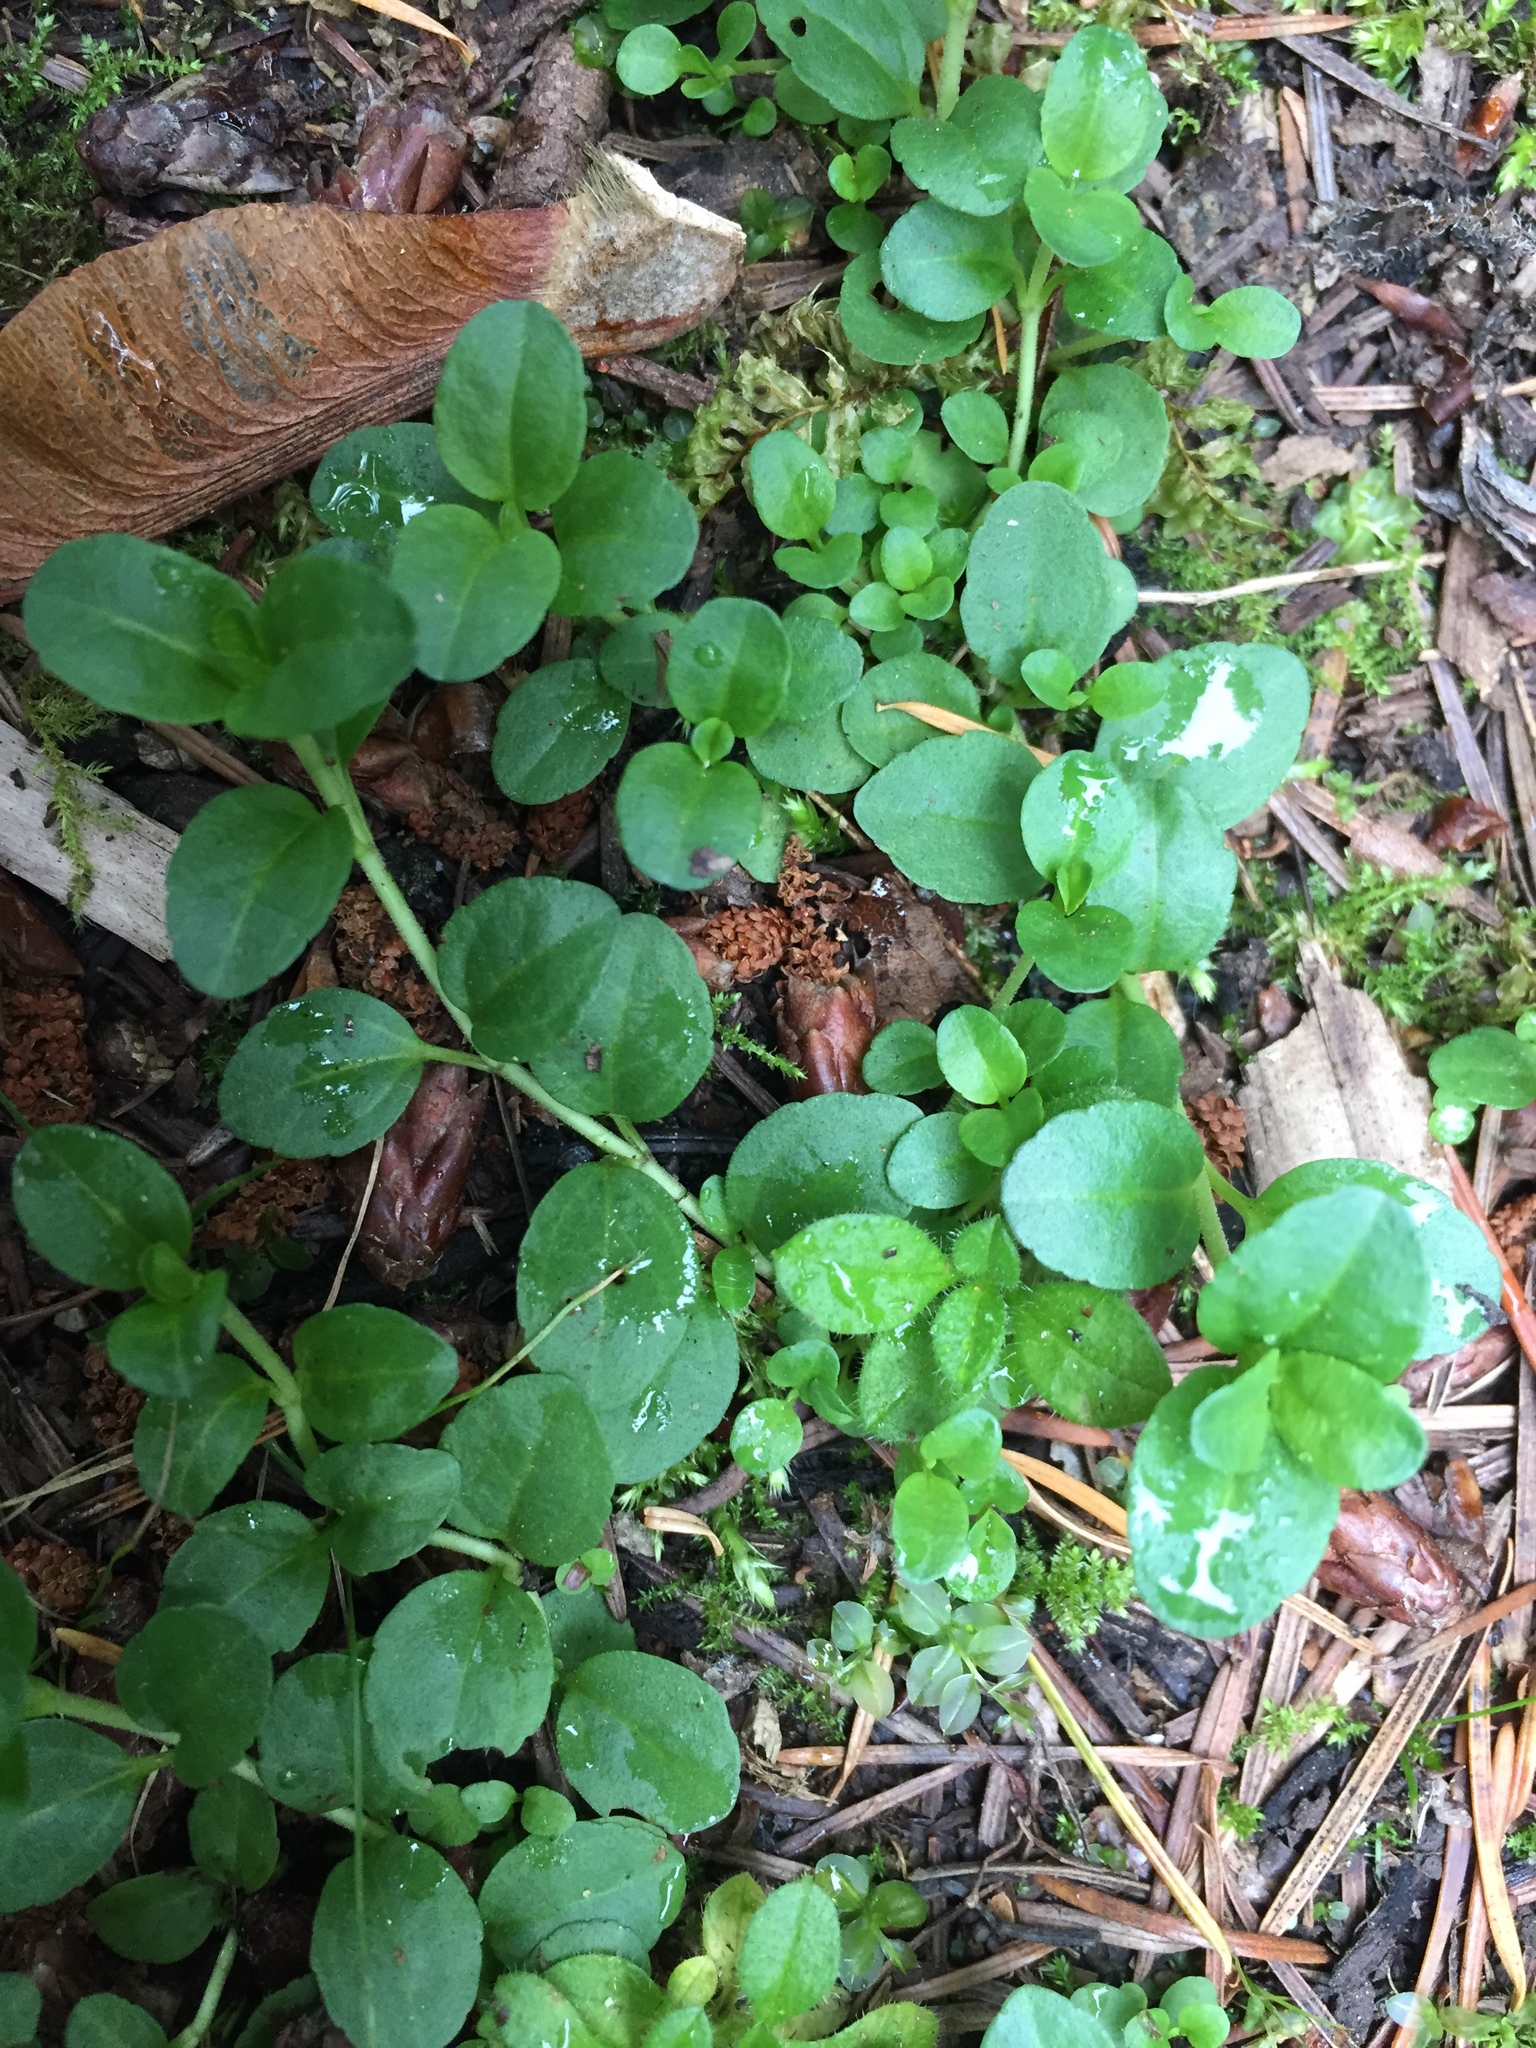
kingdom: Plantae
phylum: Tracheophyta
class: Magnoliopsida
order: Lamiales
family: Plantaginaceae
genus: Veronica
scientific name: Veronica serpyllifolia
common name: Thyme-leaved speedwell
